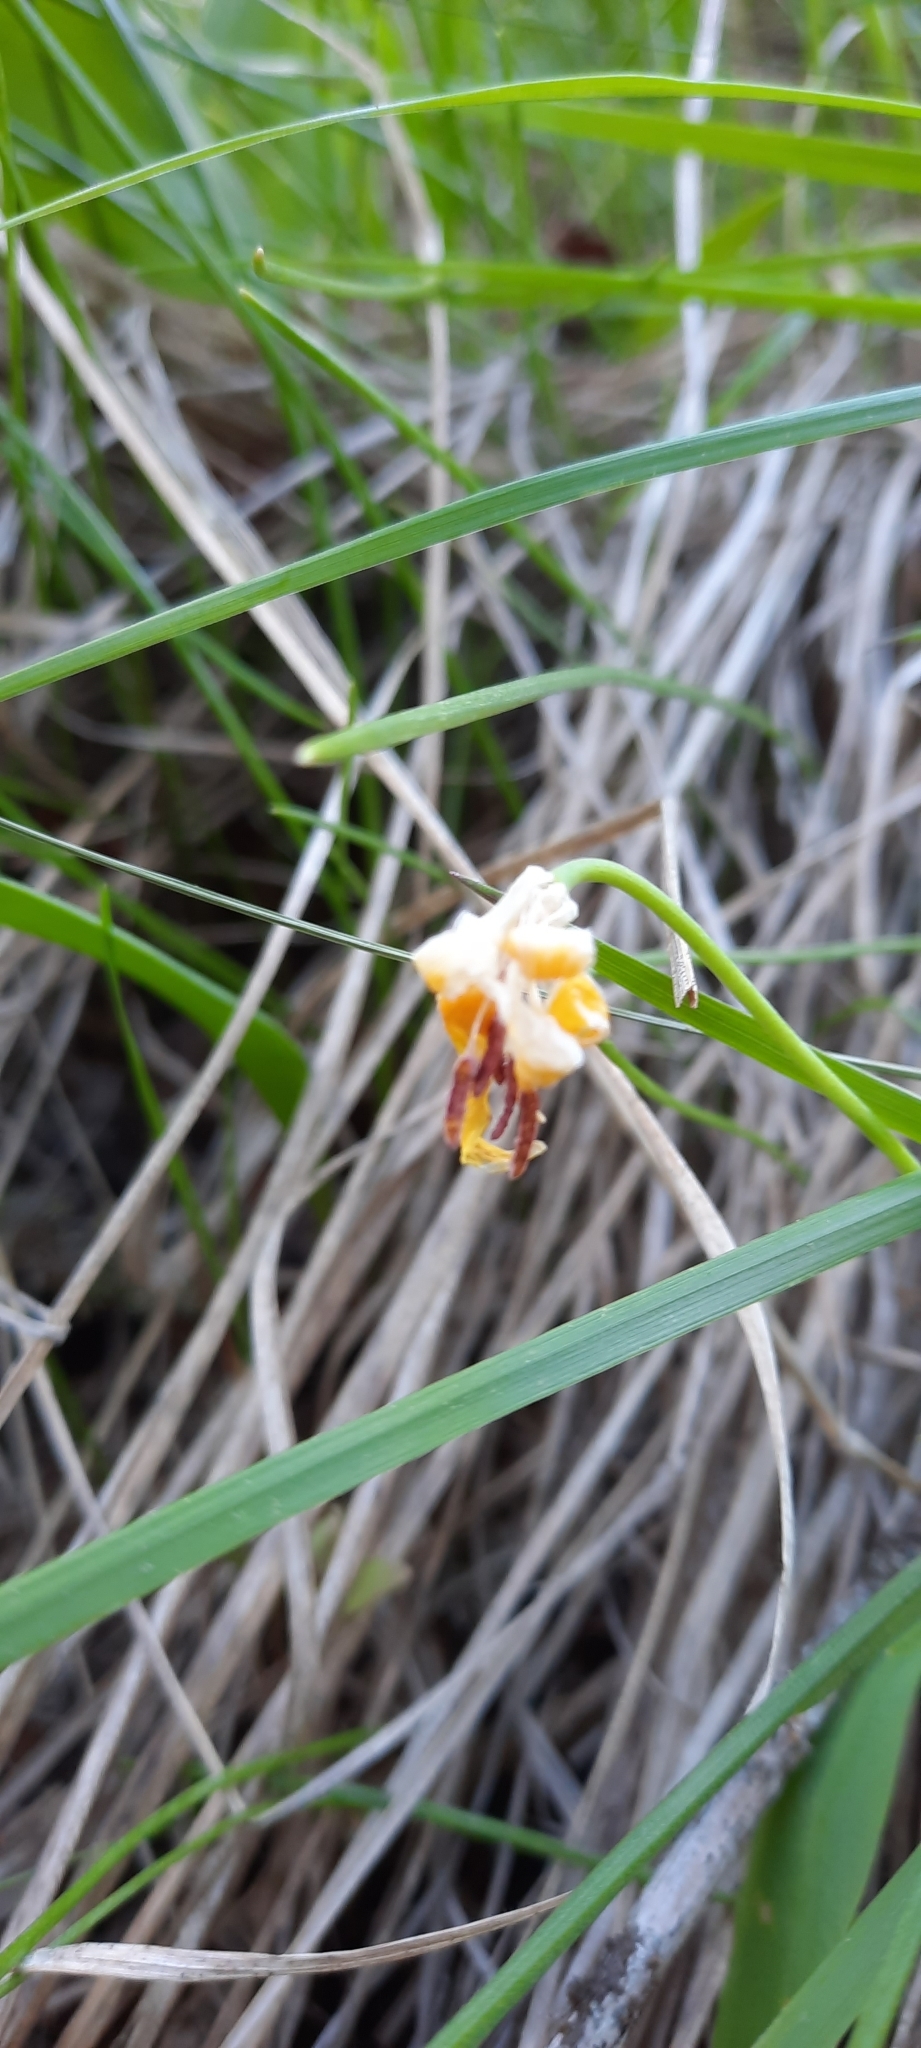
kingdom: Plantae
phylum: Tracheophyta
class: Liliopsida
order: Liliales
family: Liliaceae
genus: Erythronium
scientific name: Erythronium grandiflorum
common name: Avalanche-lily
